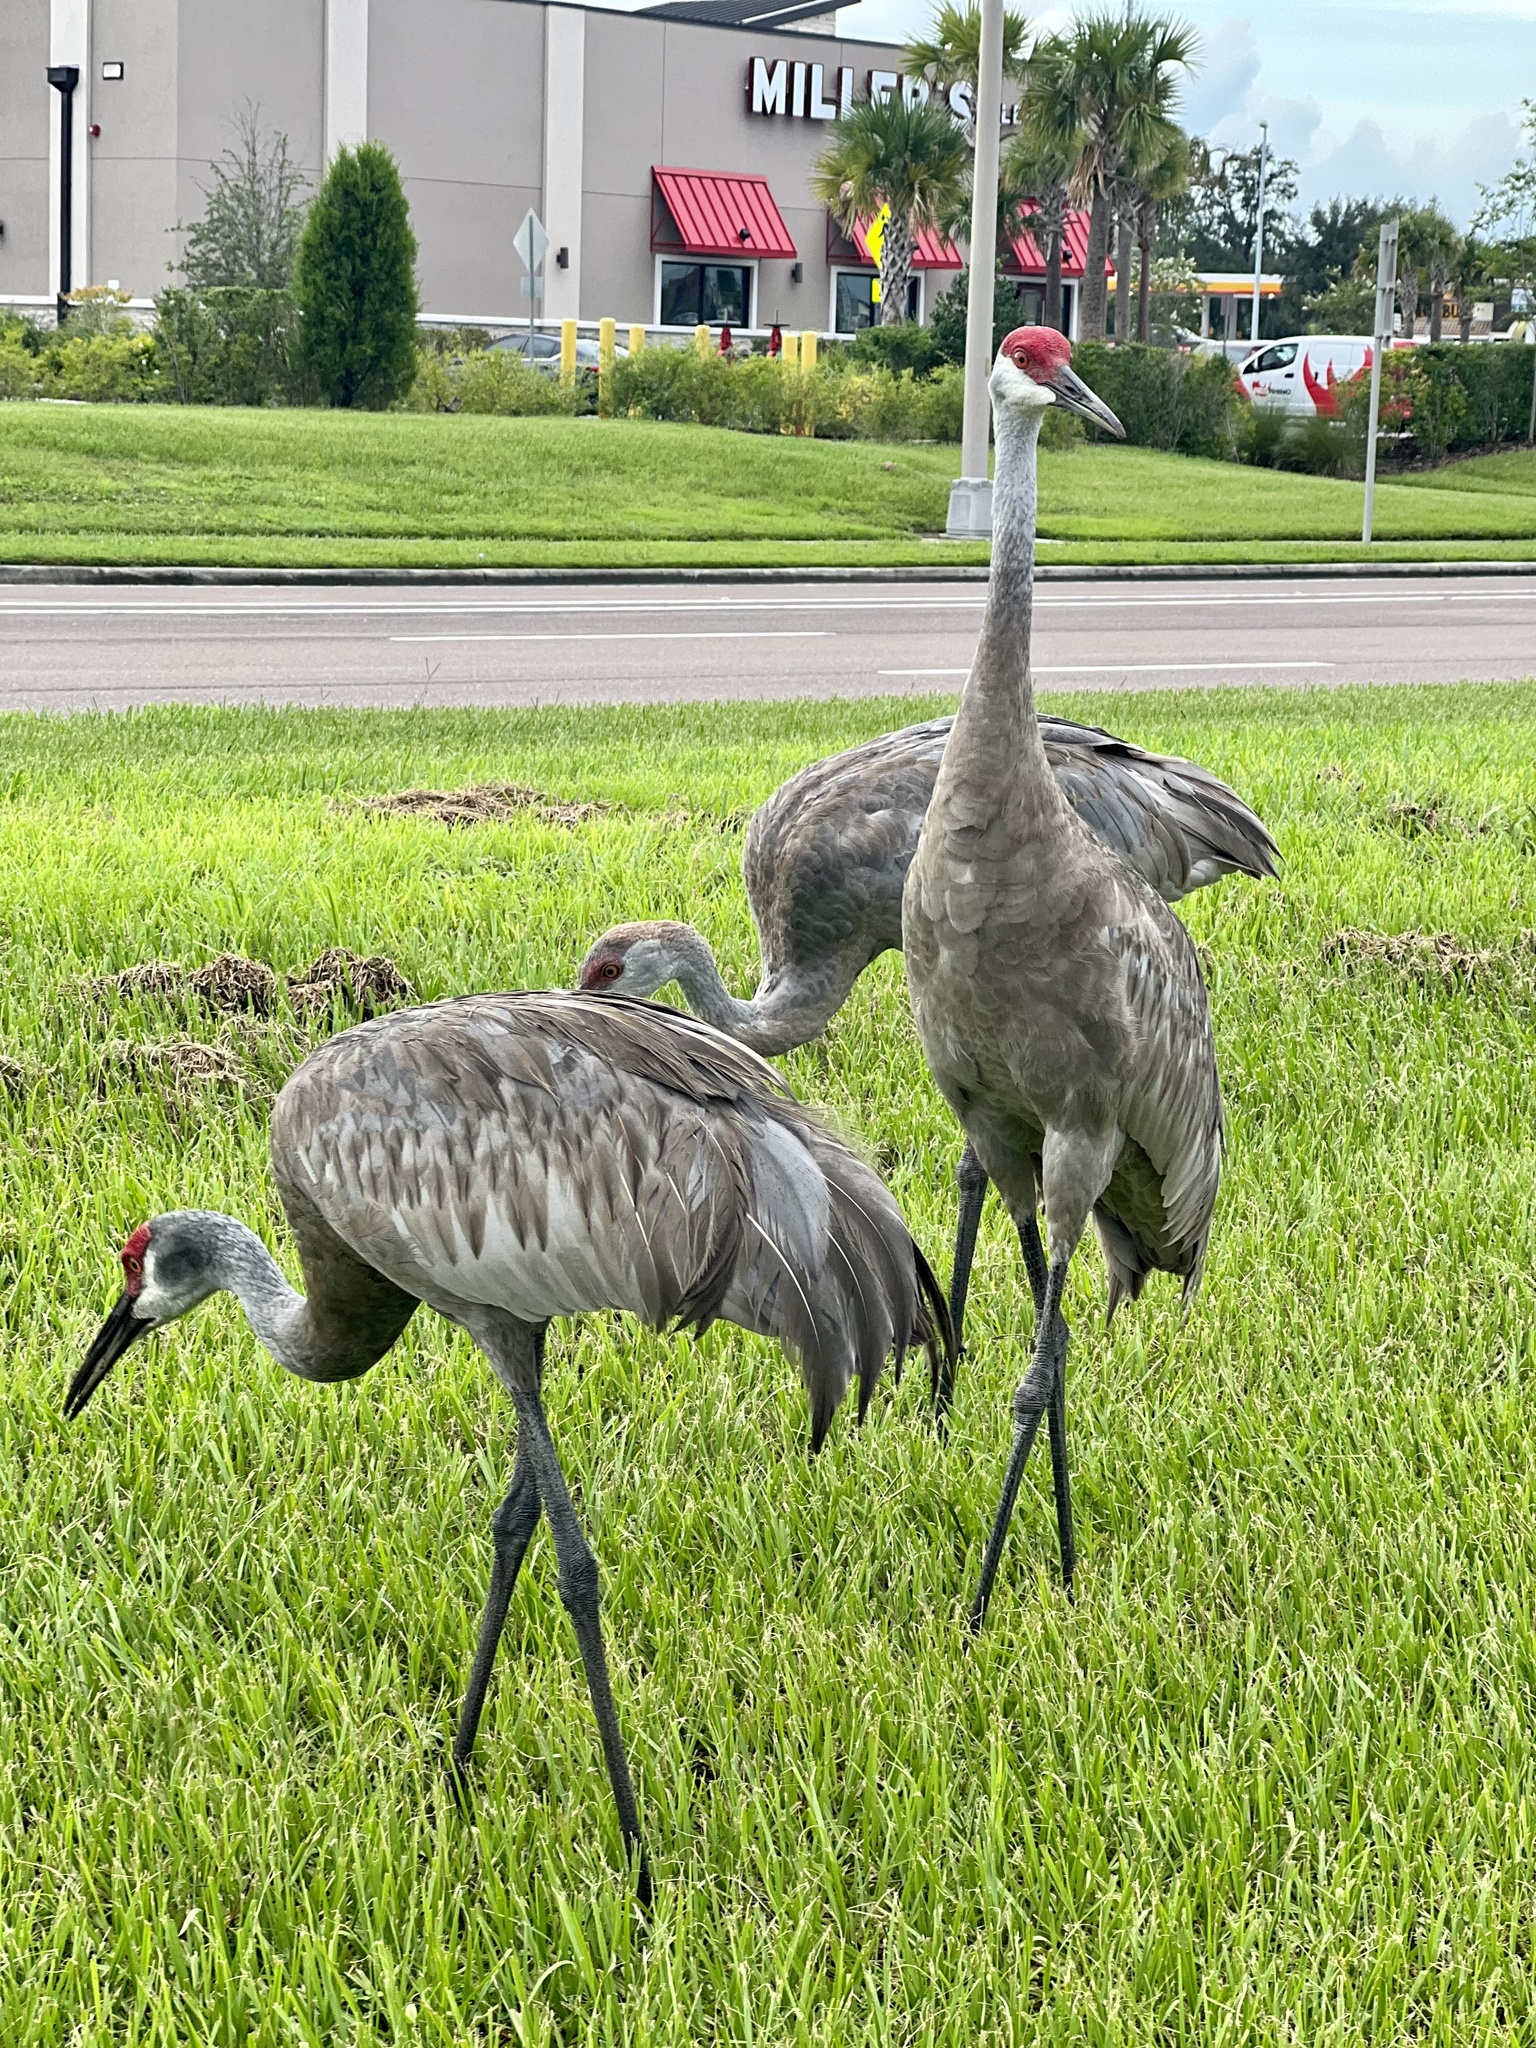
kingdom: Animalia
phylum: Chordata
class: Aves
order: Gruiformes
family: Gruidae
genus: Grus
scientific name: Grus canadensis
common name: Sandhill crane
